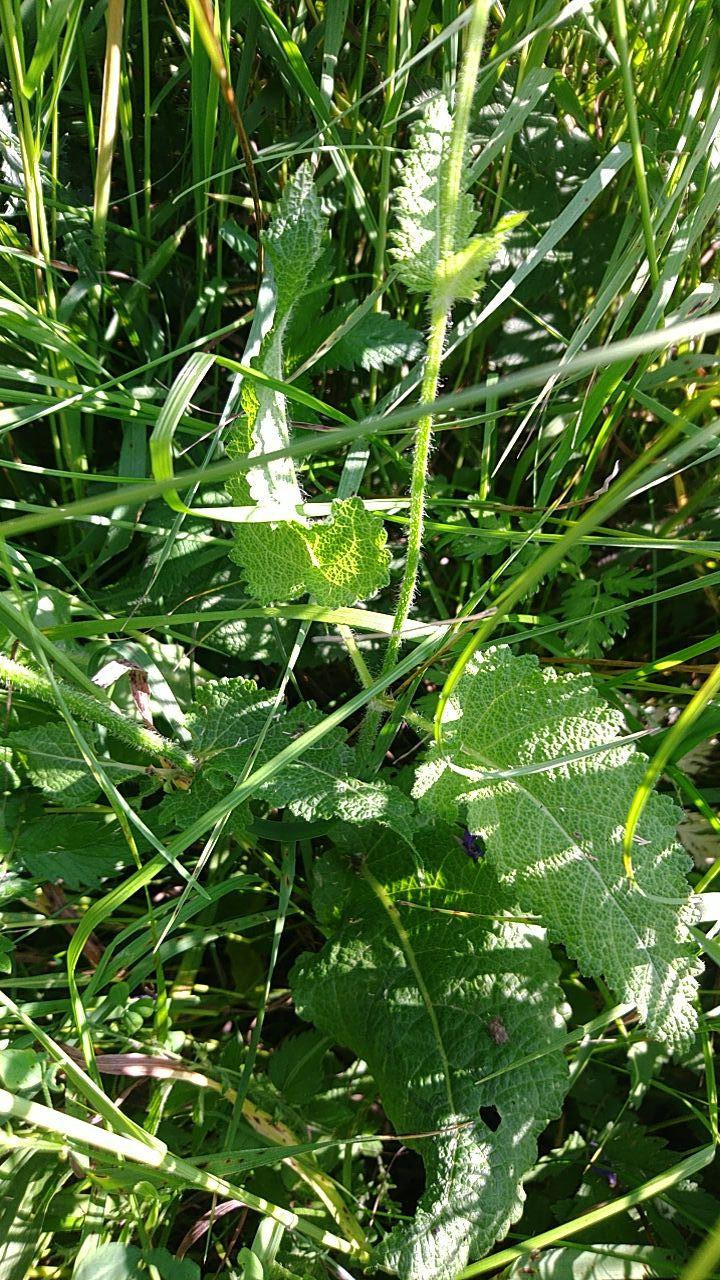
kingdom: Plantae
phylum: Tracheophyta
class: Magnoliopsida
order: Lamiales
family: Lamiaceae
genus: Salvia
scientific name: Salvia pratensis
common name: Meadow sage
